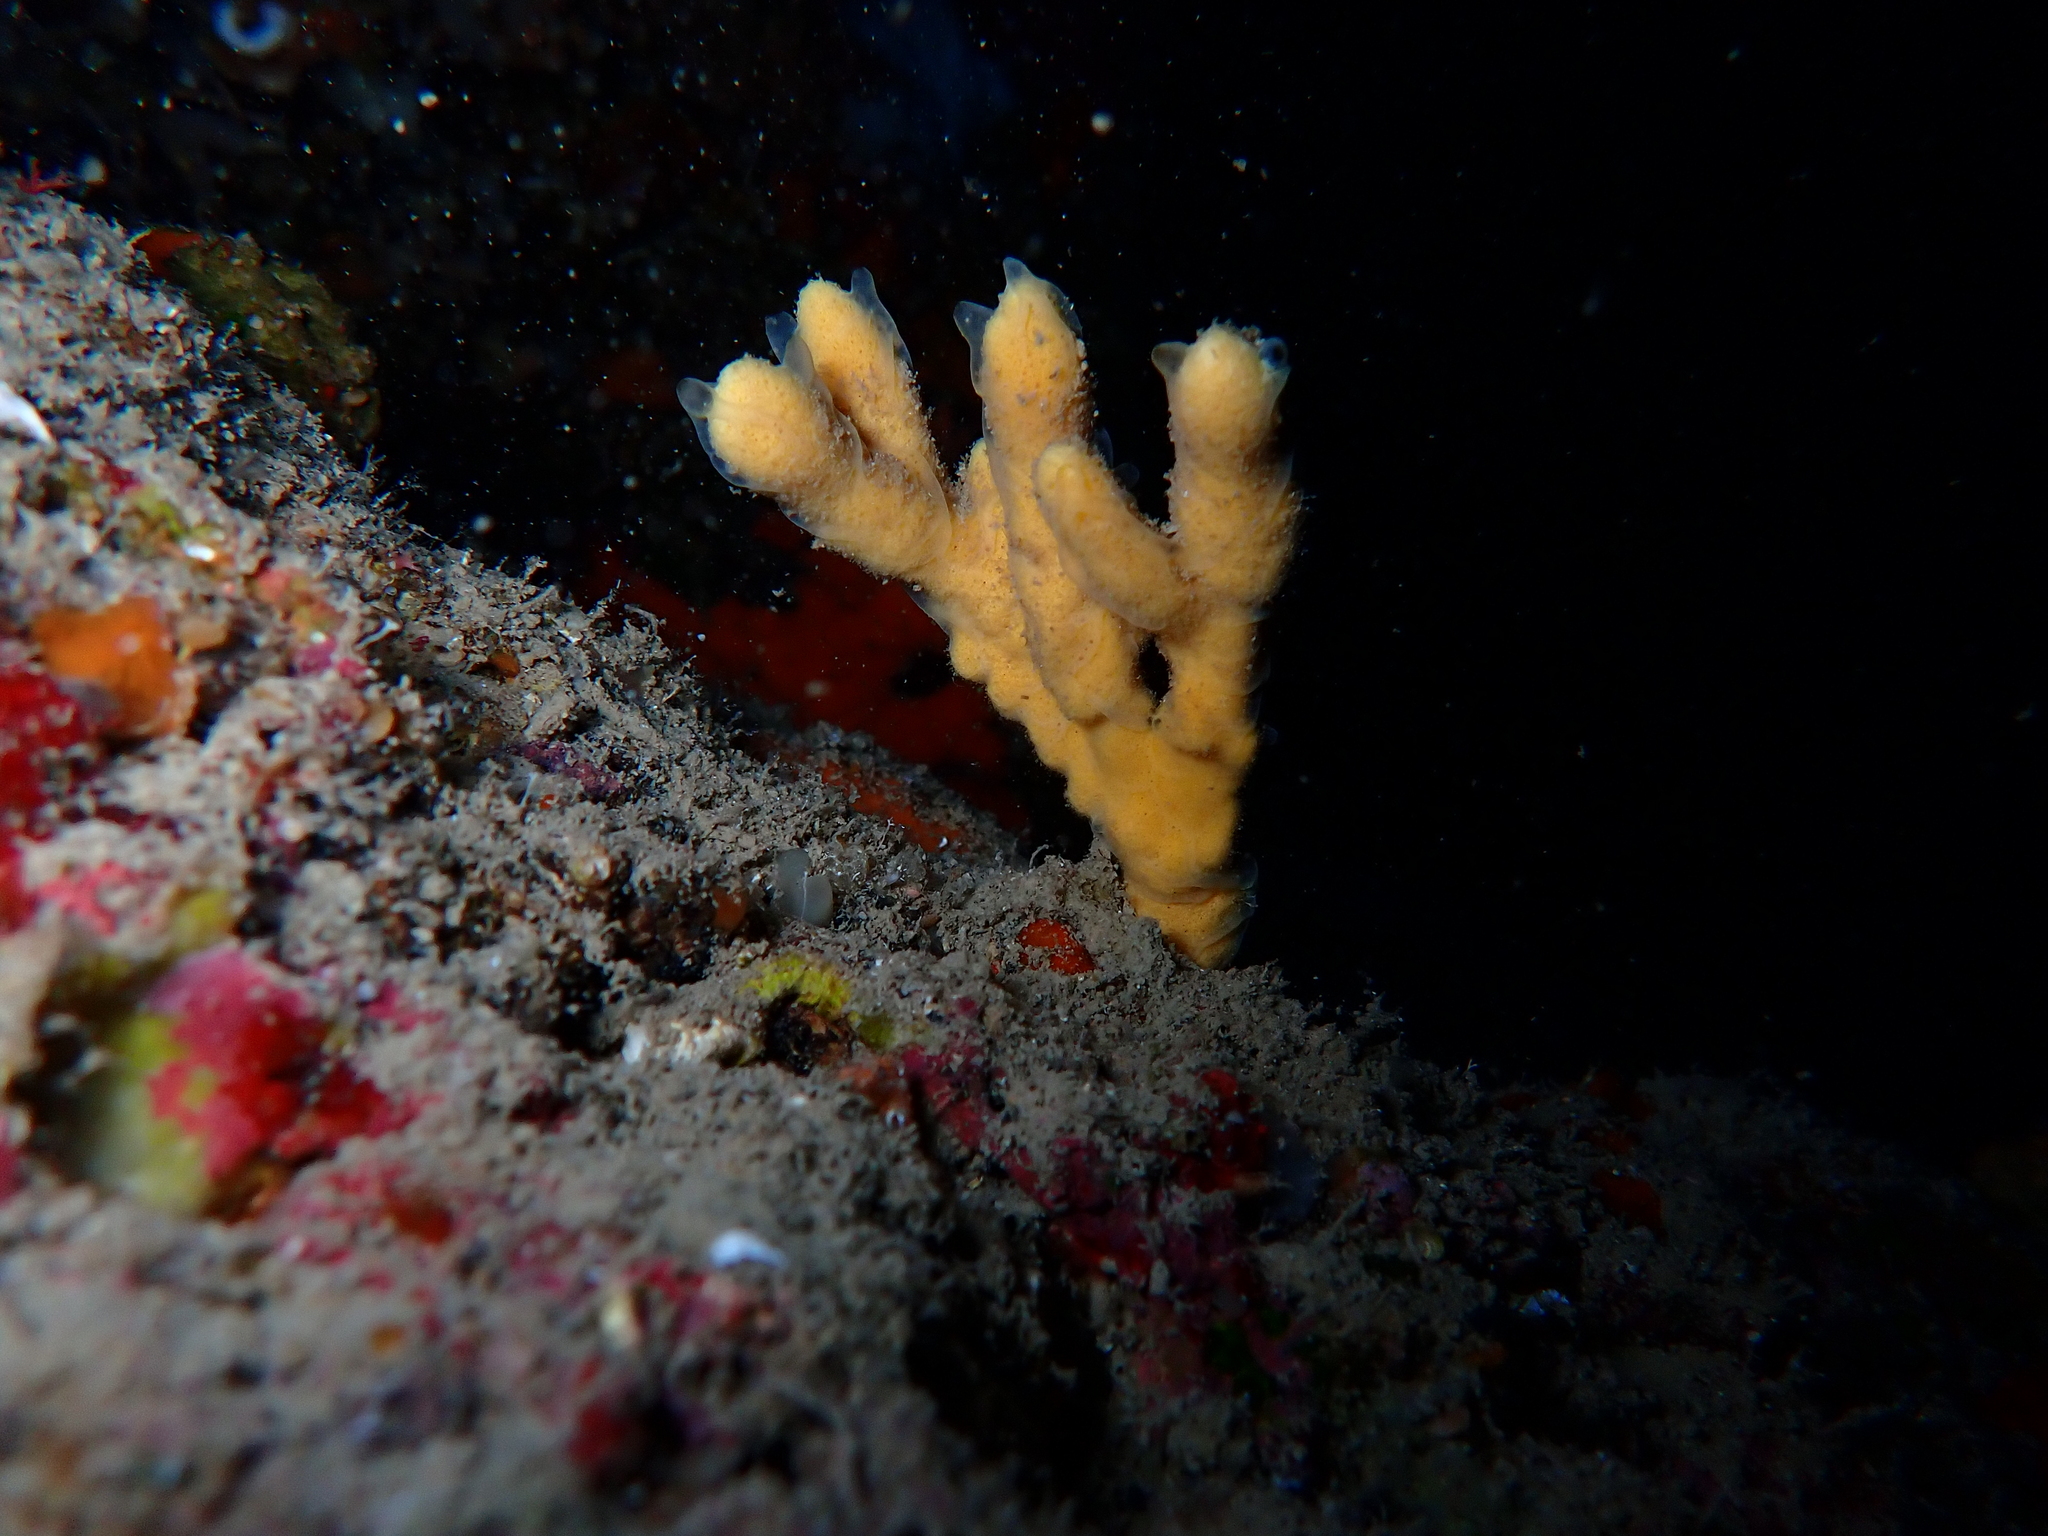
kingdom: Animalia
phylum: Porifera
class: Demospongiae
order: Axinellida
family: Axinellidae
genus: Axinella
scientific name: Axinella verrucosa
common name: Mediterranean mermaids glove
